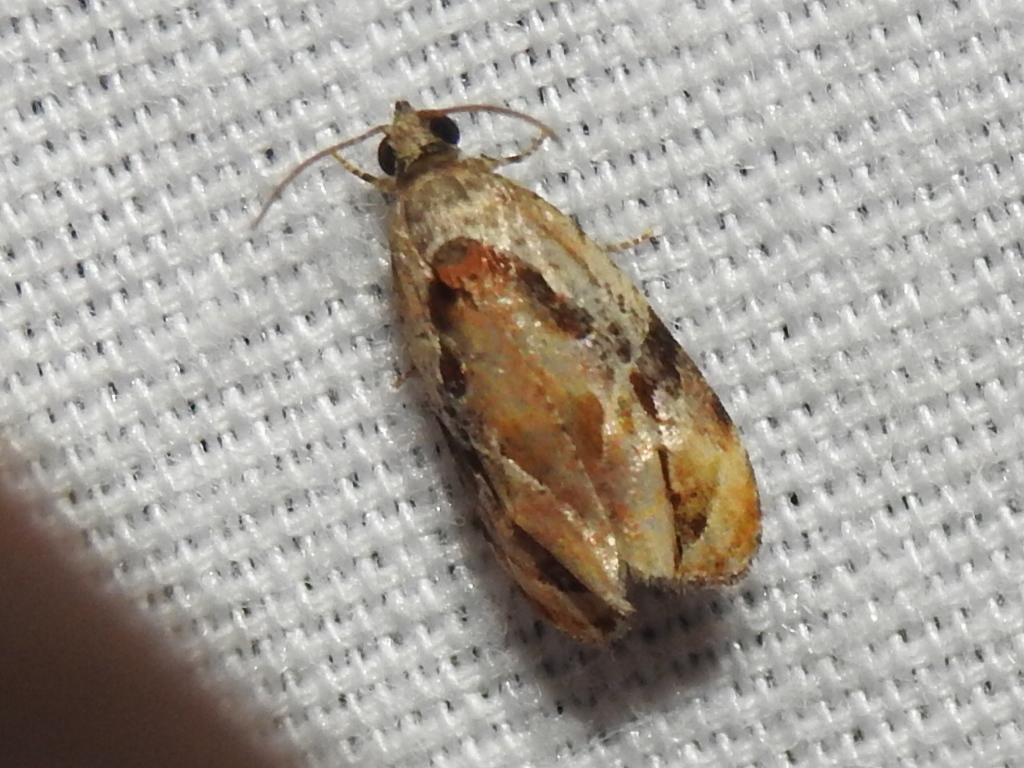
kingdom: Animalia
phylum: Arthropoda
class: Insecta
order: Lepidoptera
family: Tortricidae
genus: Zomaria
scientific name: Zomaria interruptolineana
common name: Broken-lined zomaria moth
